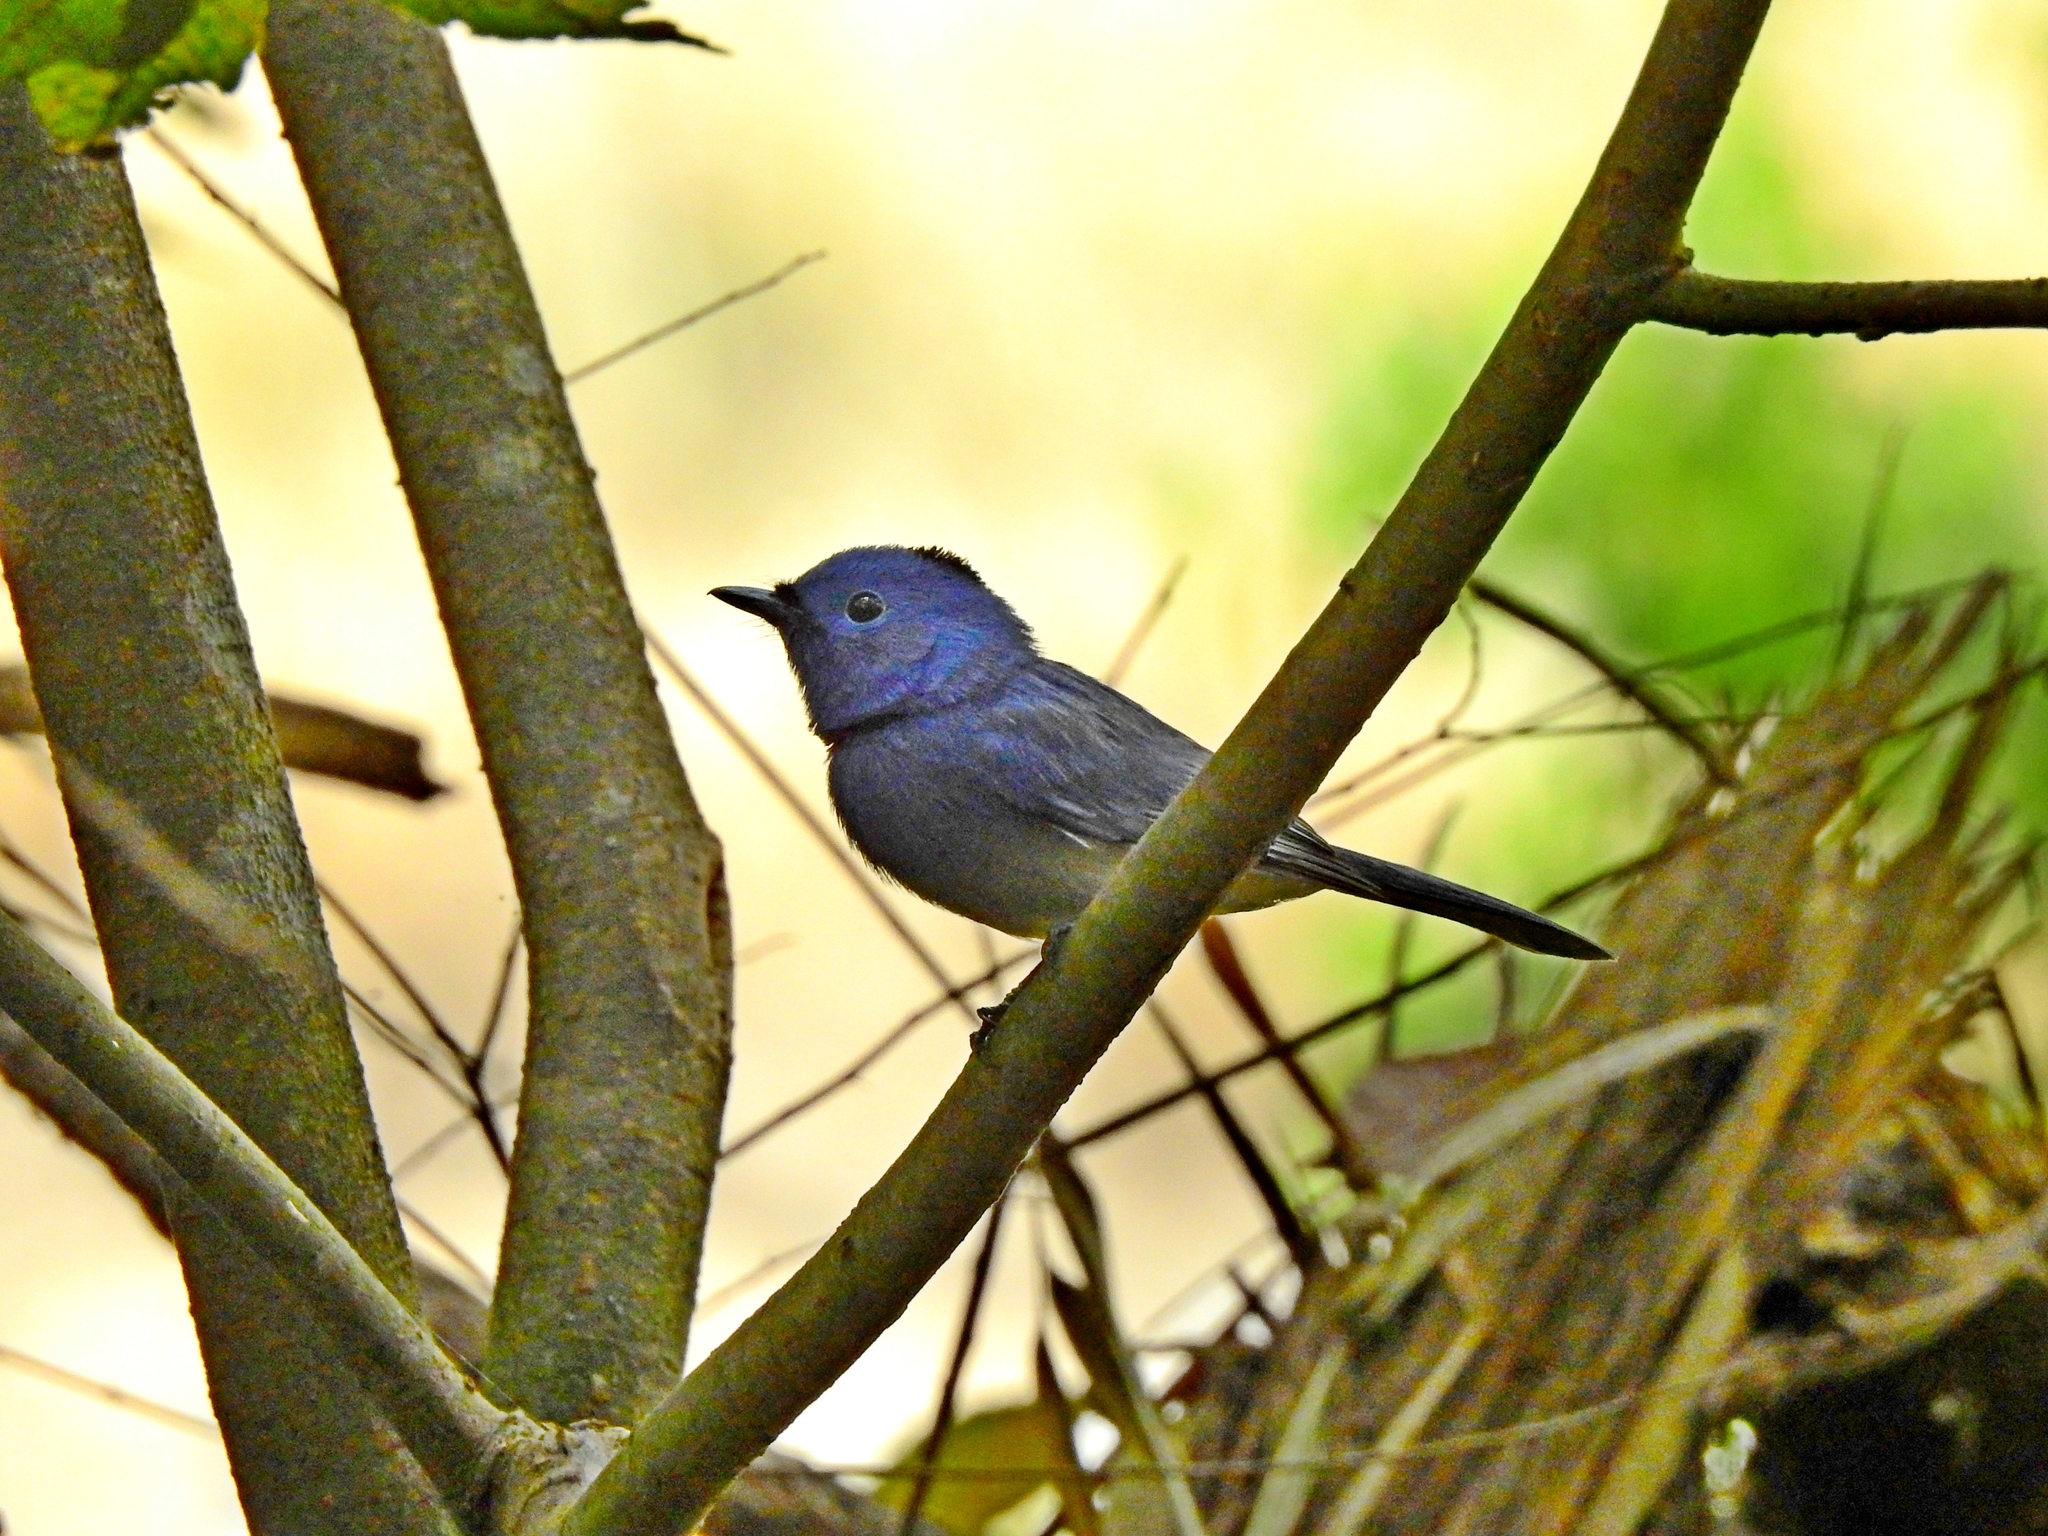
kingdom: Animalia
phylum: Chordata
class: Aves
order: Passeriformes
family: Monarchidae
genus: Hypothymis
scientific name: Hypothymis azurea
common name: Black-naped monarch
